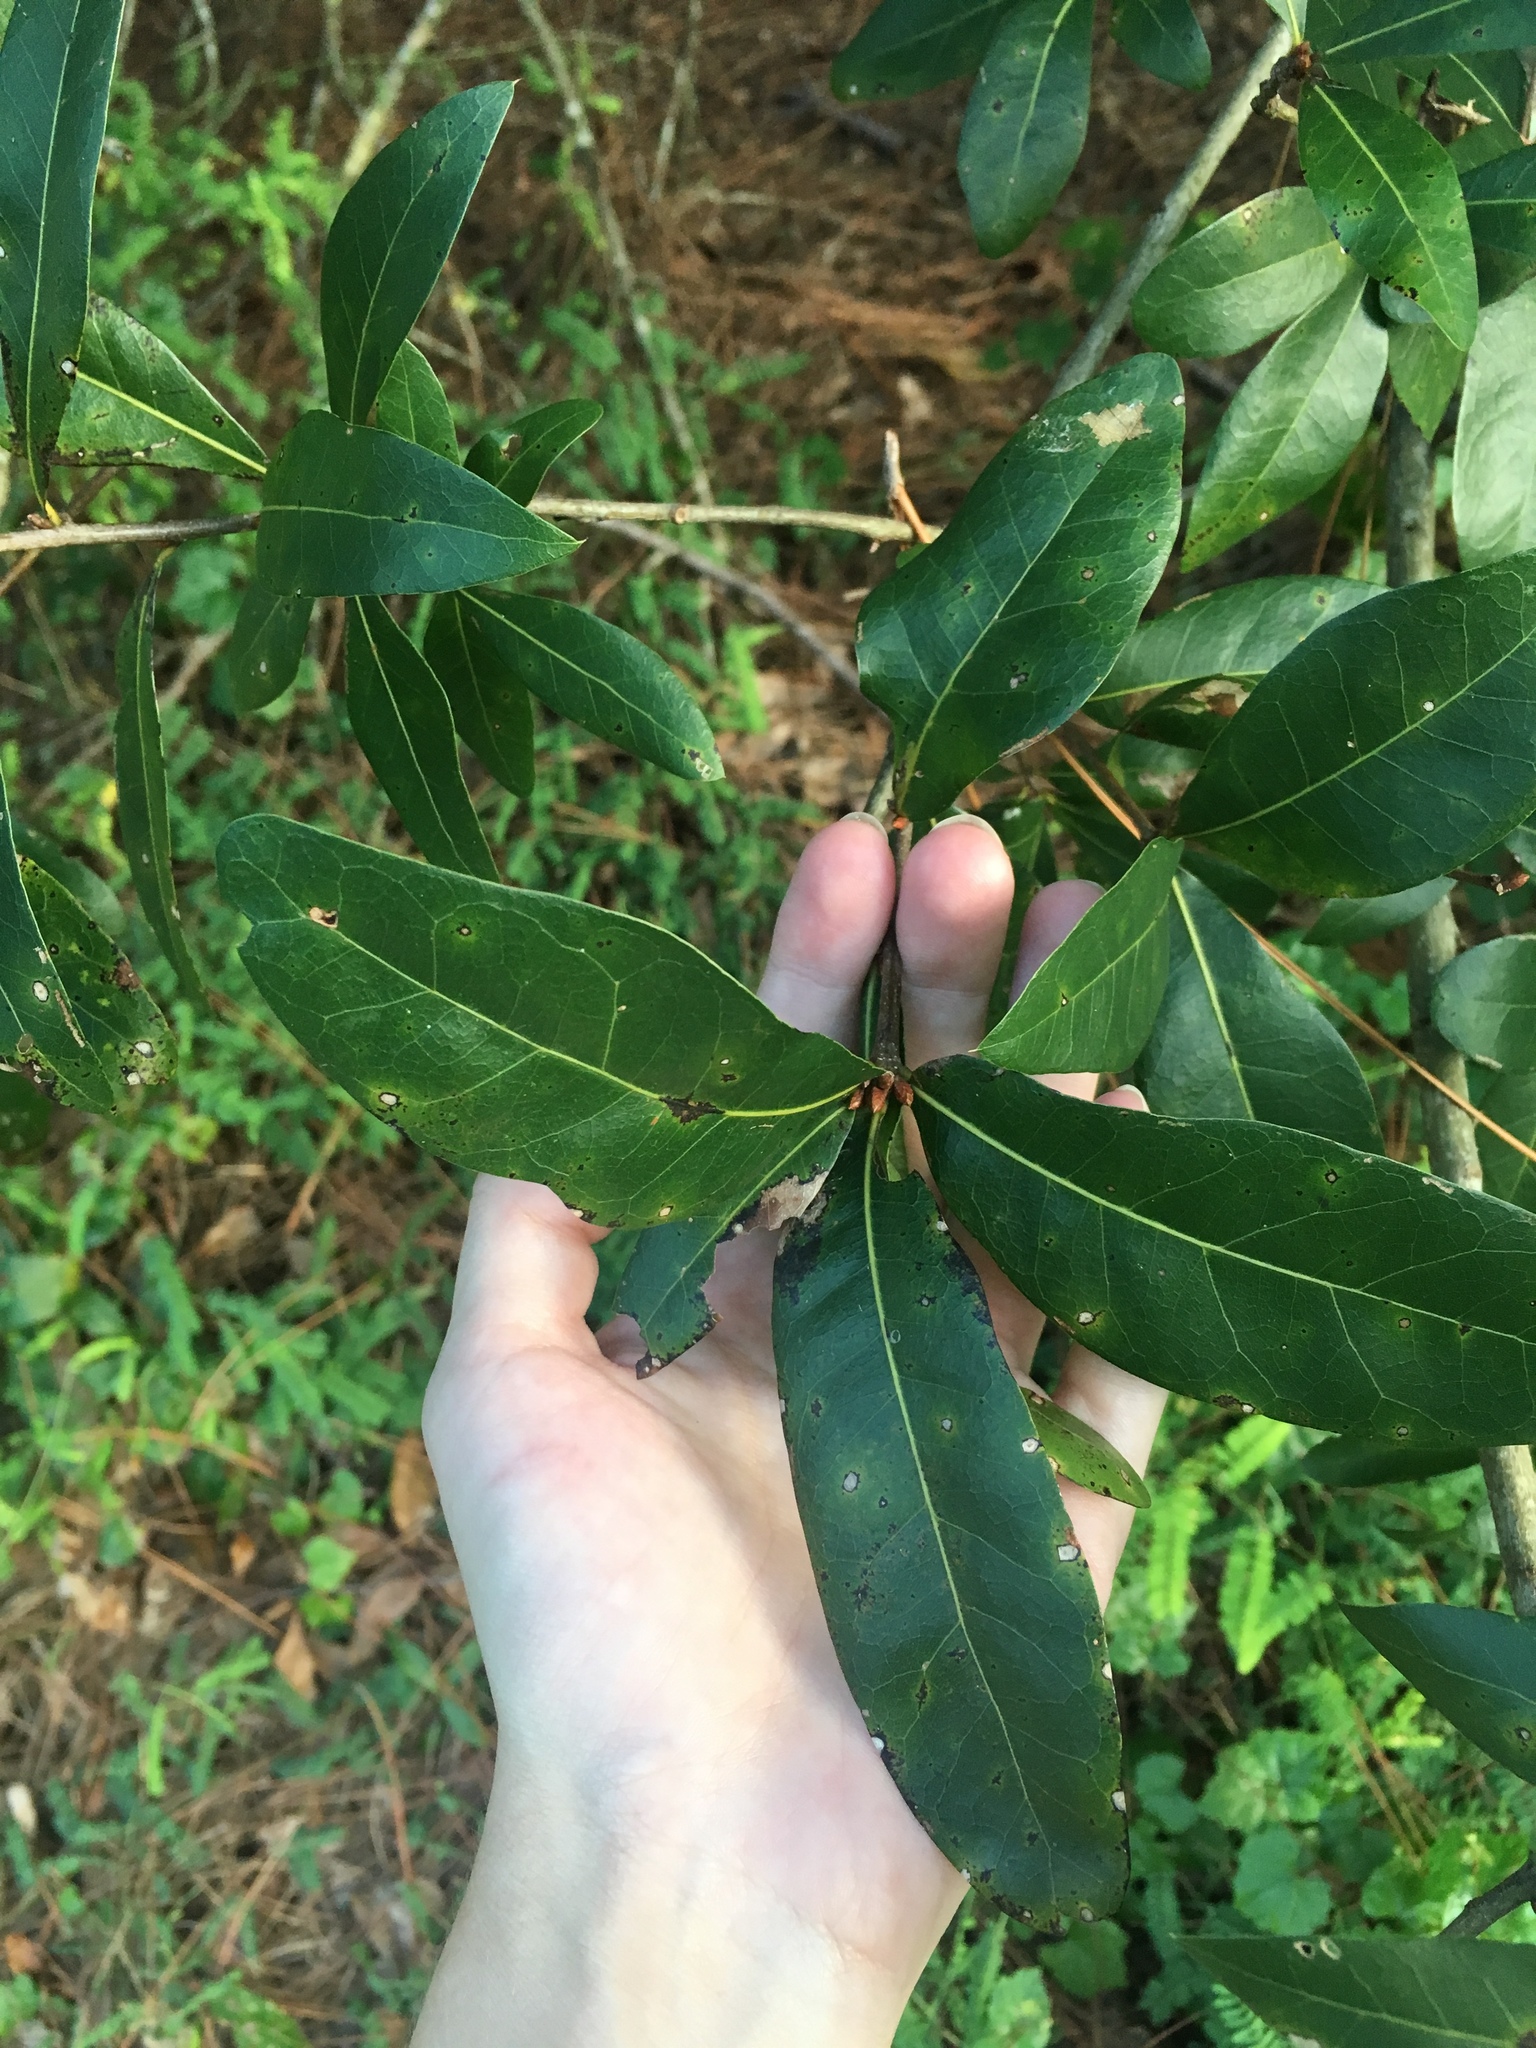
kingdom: Plantae
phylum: Tracheophyta
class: Magnoliopsida
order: Fagales
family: Fagaceae
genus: Quercus
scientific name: Quercus laurifolia
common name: Swamp laurel oak
